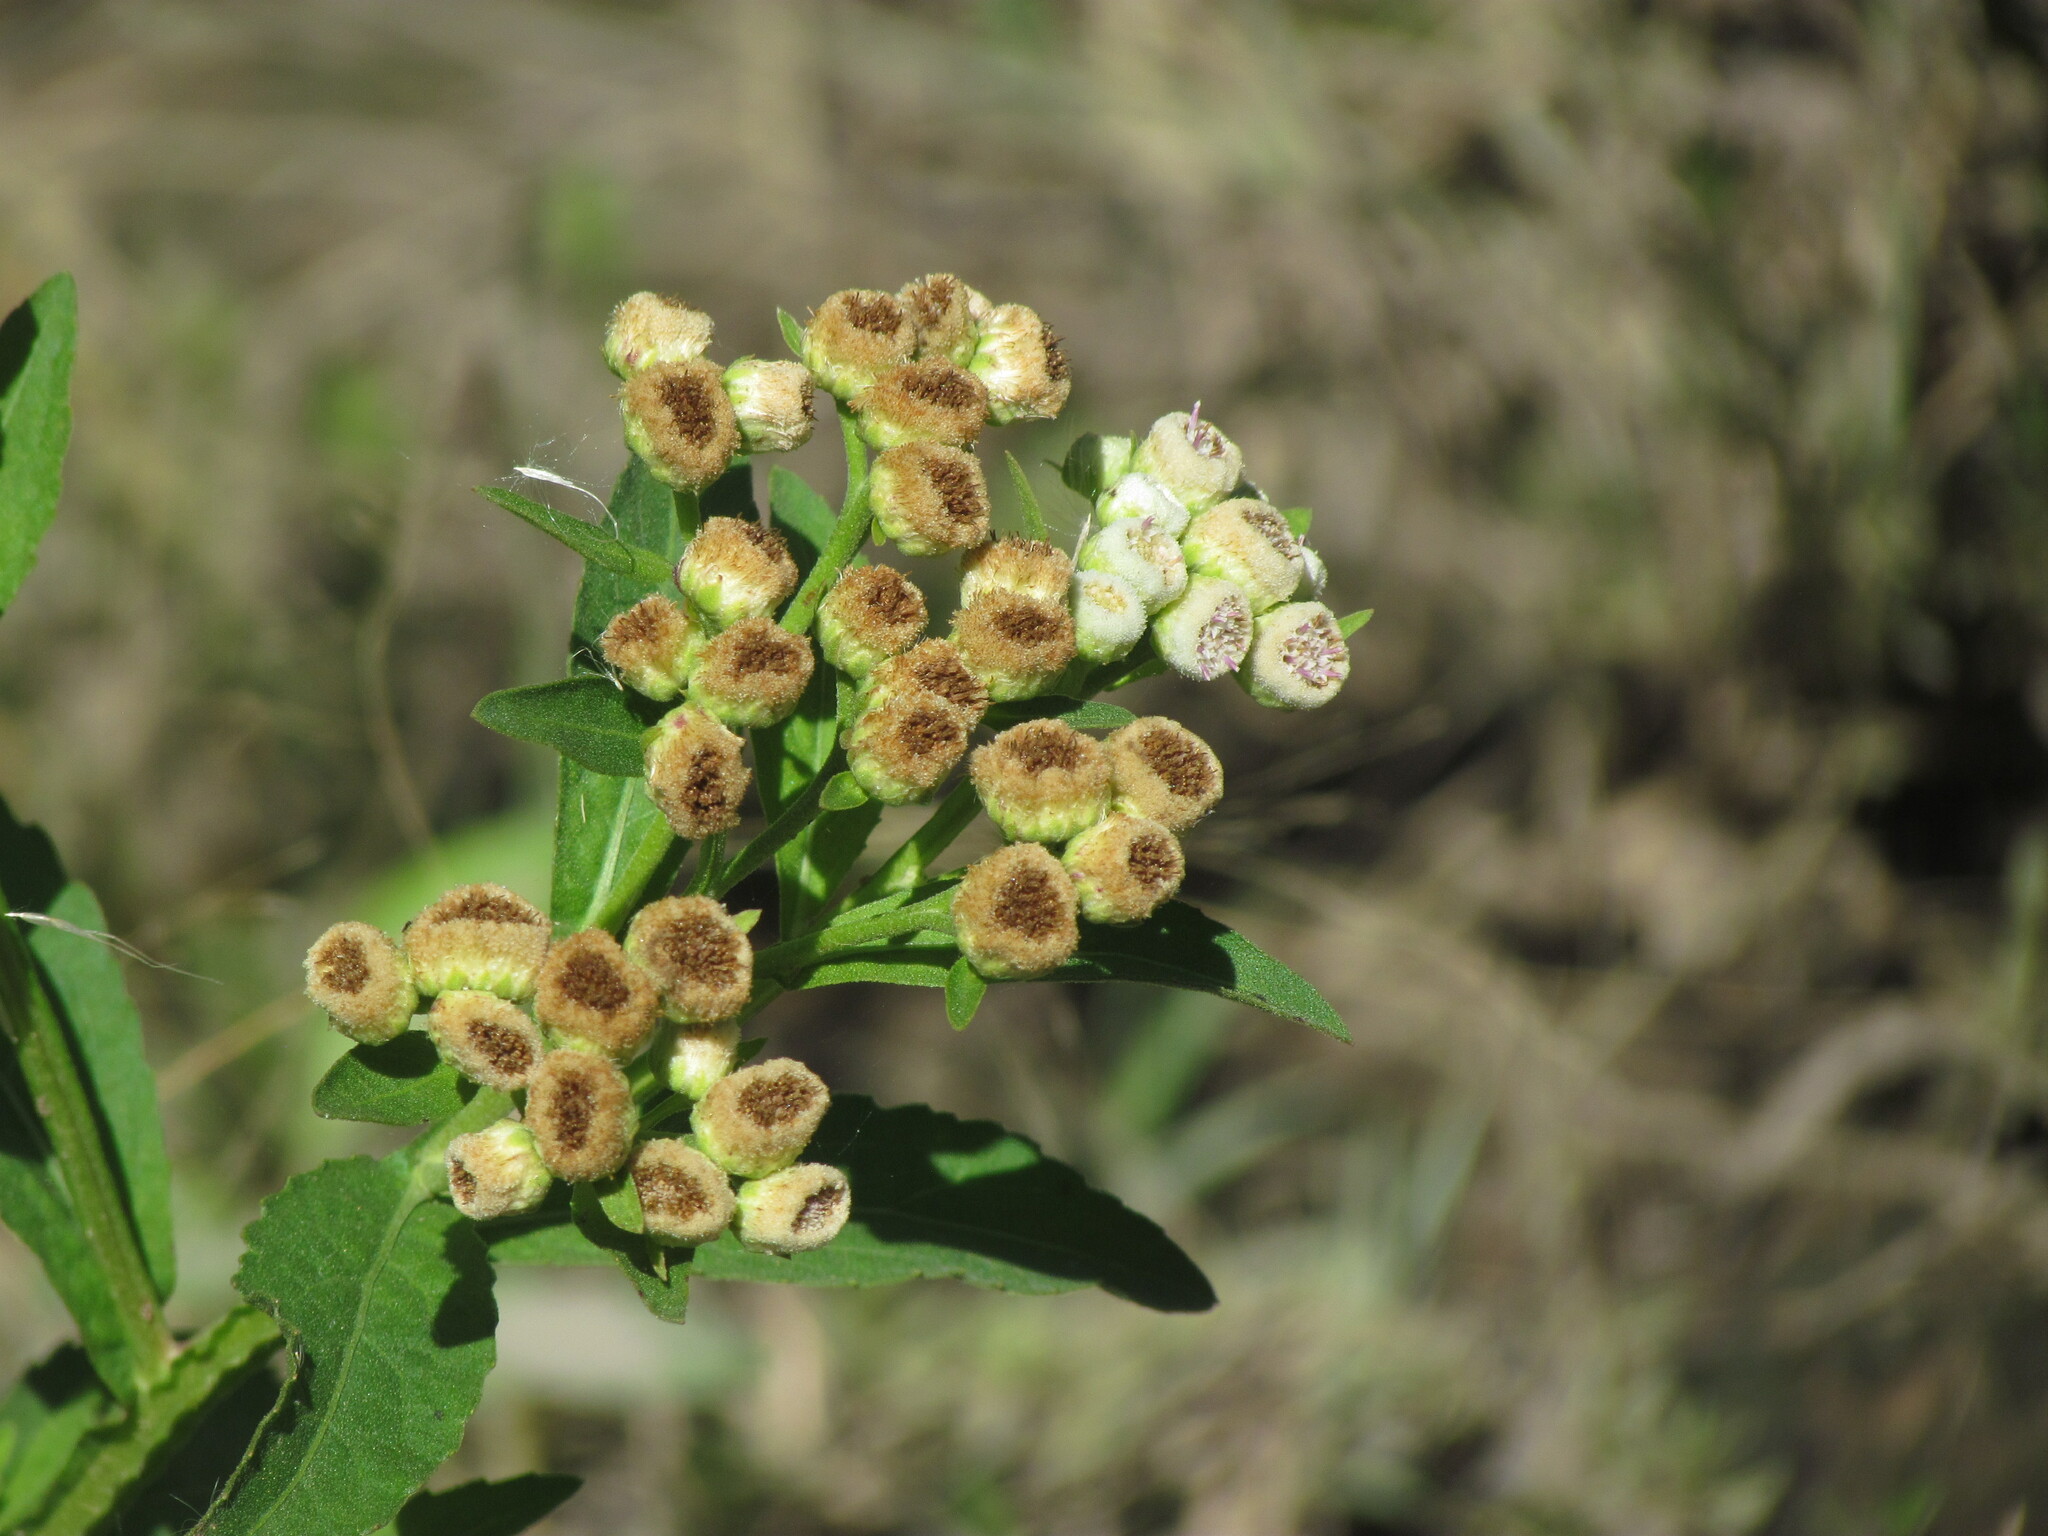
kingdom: Plantae
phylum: Tracheophyta
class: Magnoliopsida
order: Asterales
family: Asteraceae
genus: Pluchea
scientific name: Pluchea sagittalis
